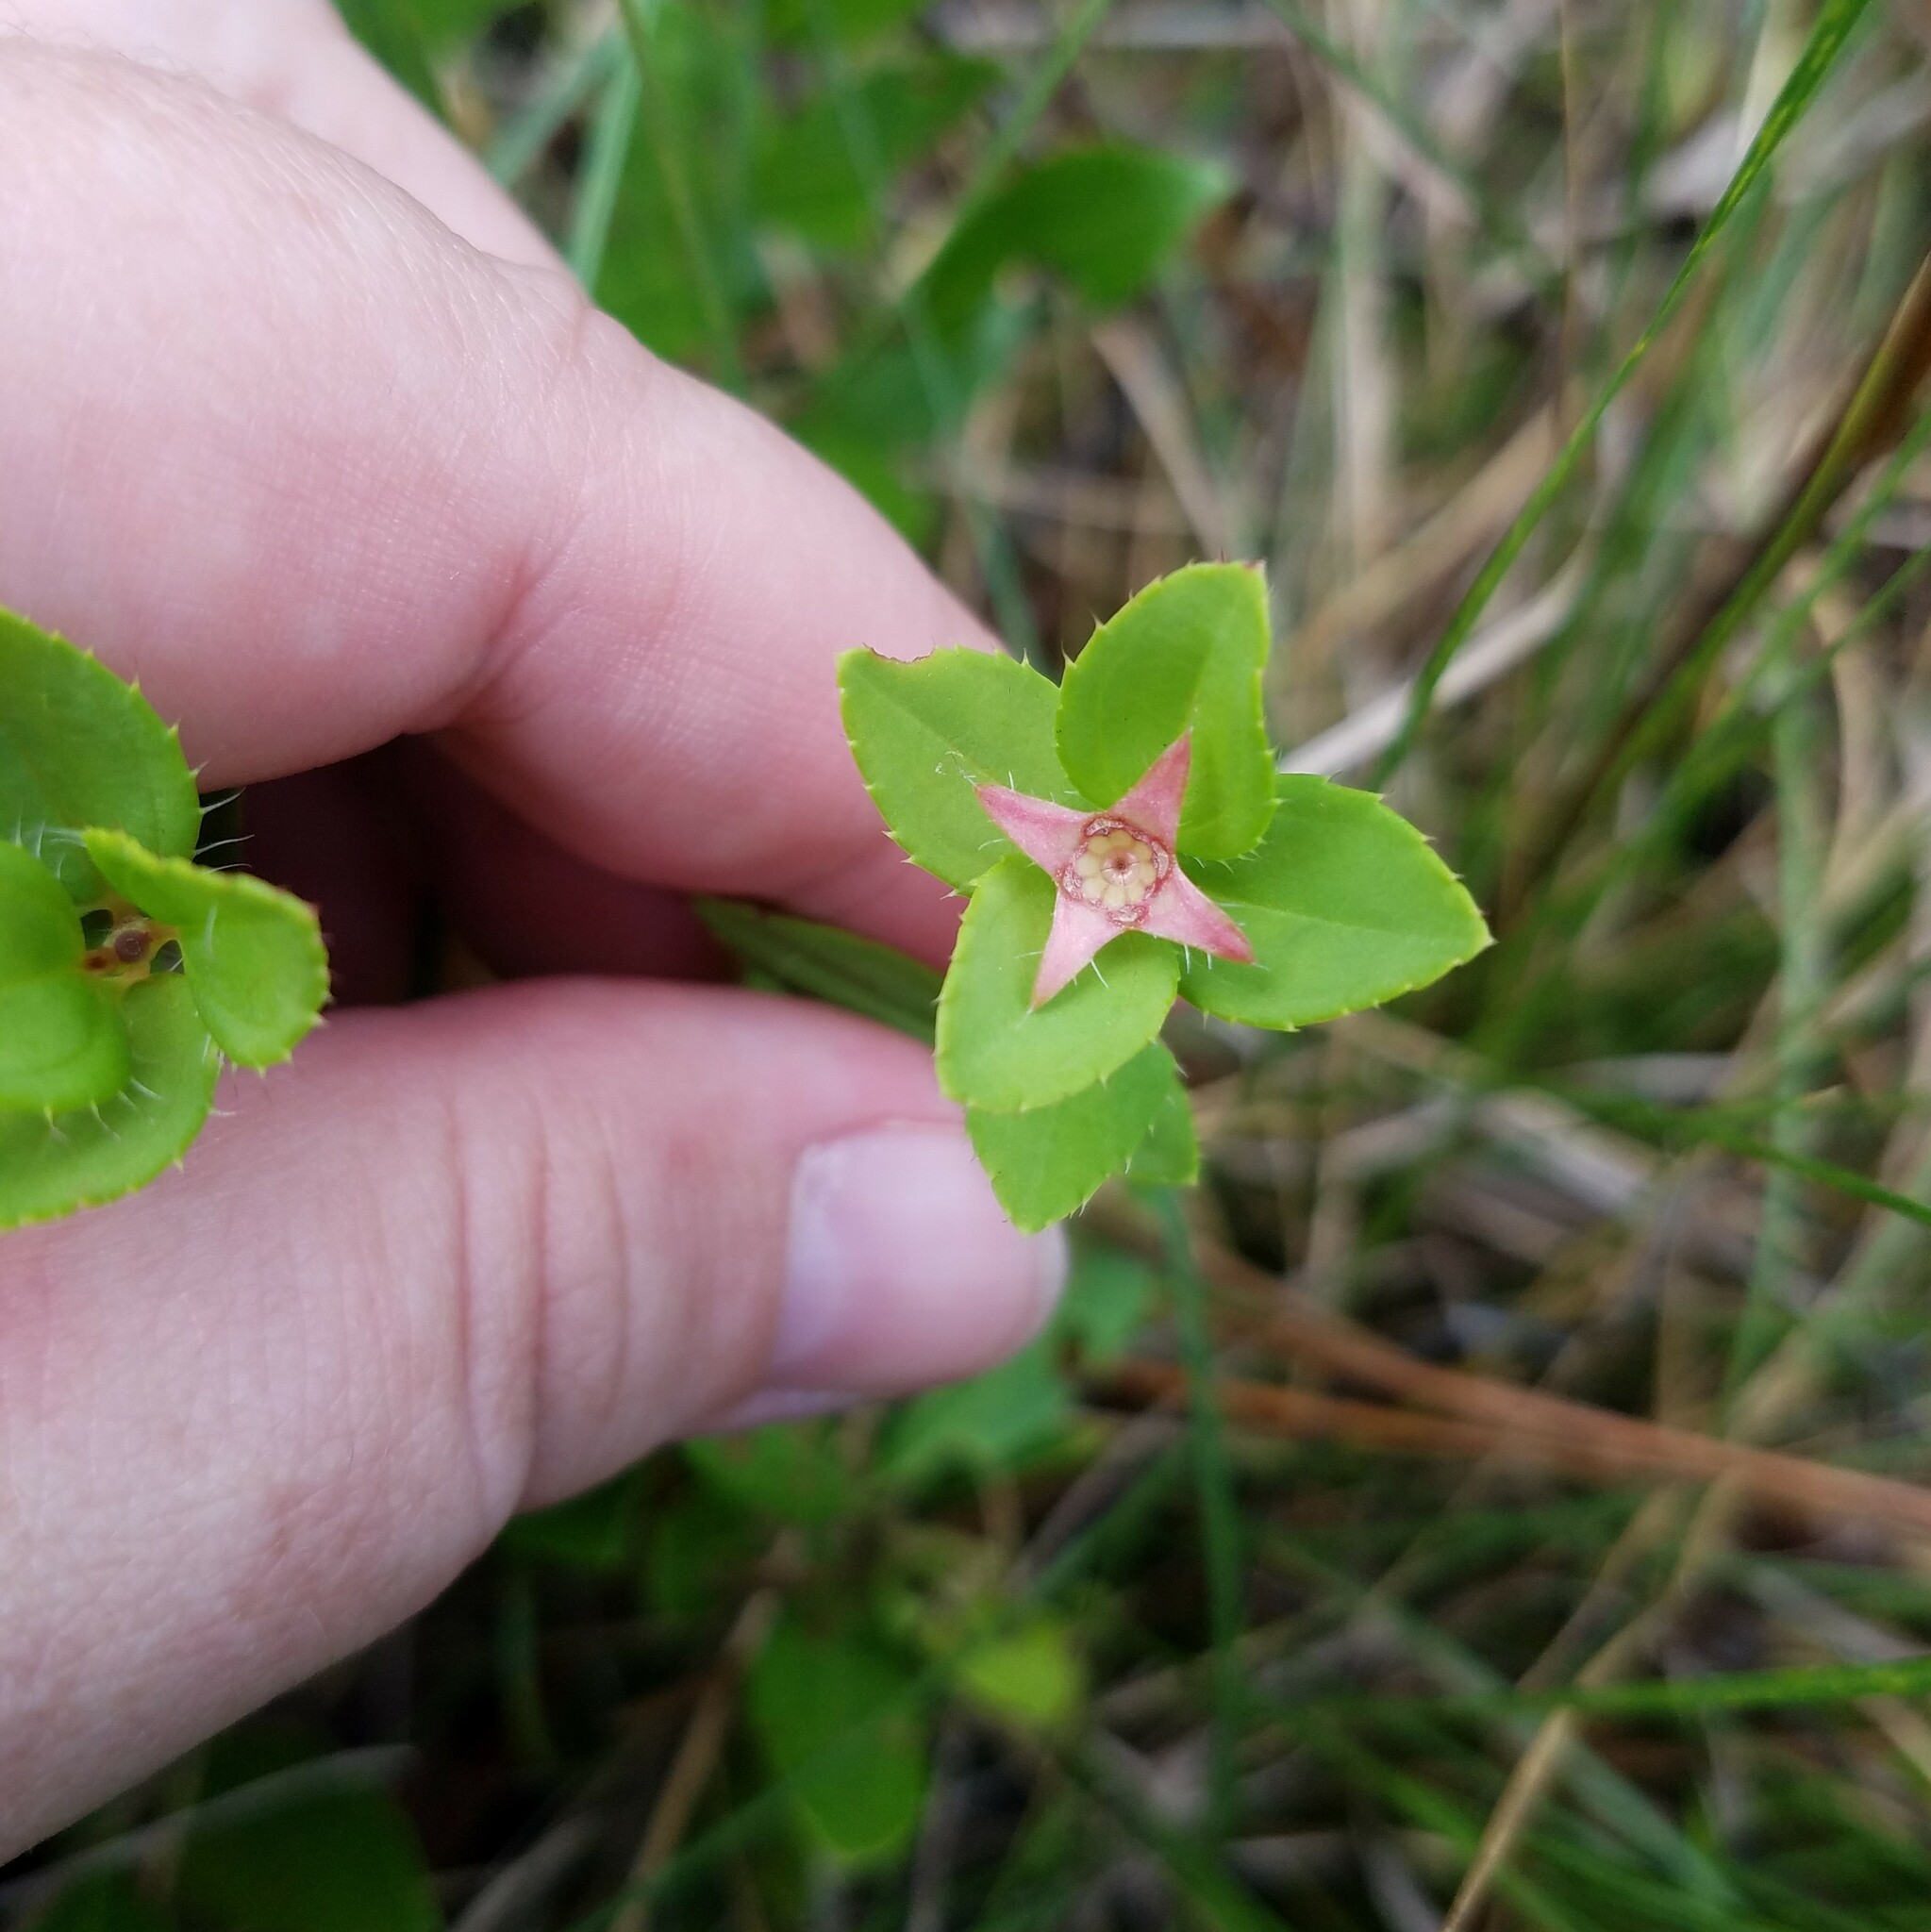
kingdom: Plantae
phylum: Tracheophyta
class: Magnoliopsida
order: Myrtales
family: Melastomataceae
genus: Rhexia
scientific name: Rhexia petiolata
